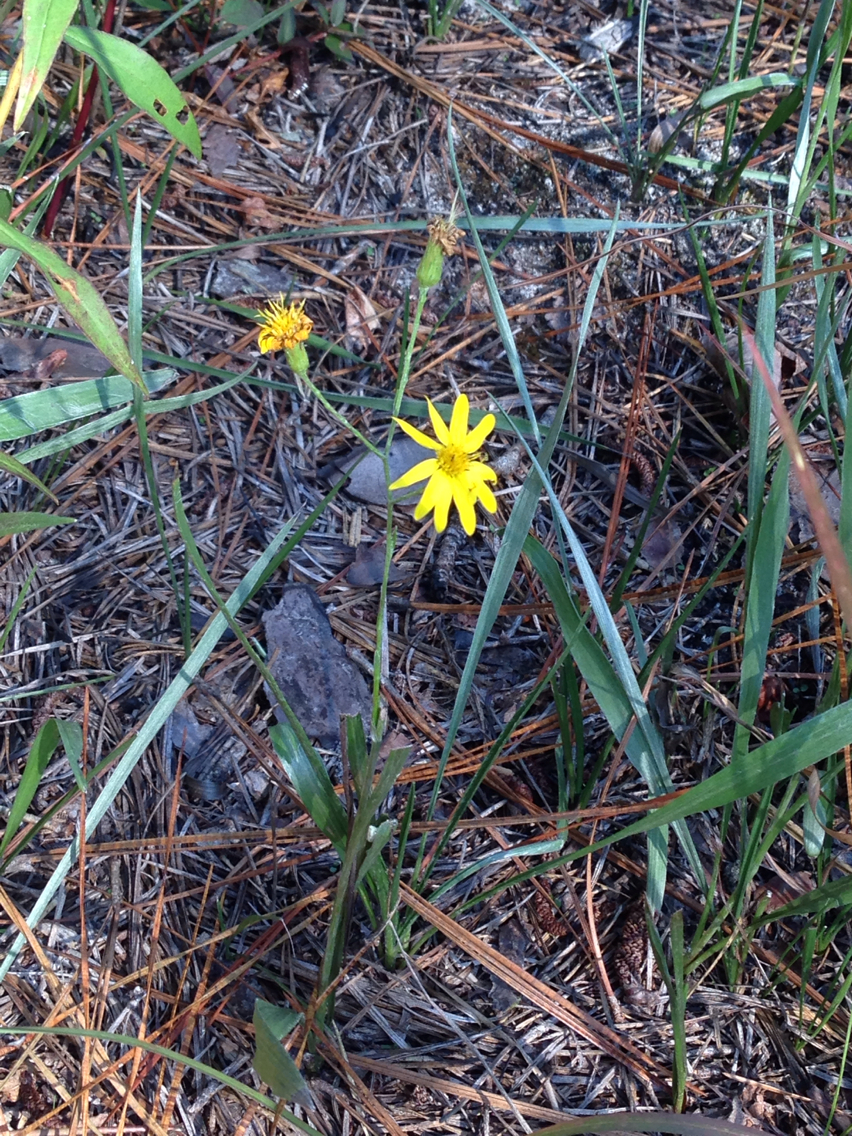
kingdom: Plantae
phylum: Tracheophyta
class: Magnoliopsida
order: Asterales
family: Asteraceae
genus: Pityopsis
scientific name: Pityopsis graminifolia
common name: Grass-leaf golden-aster
